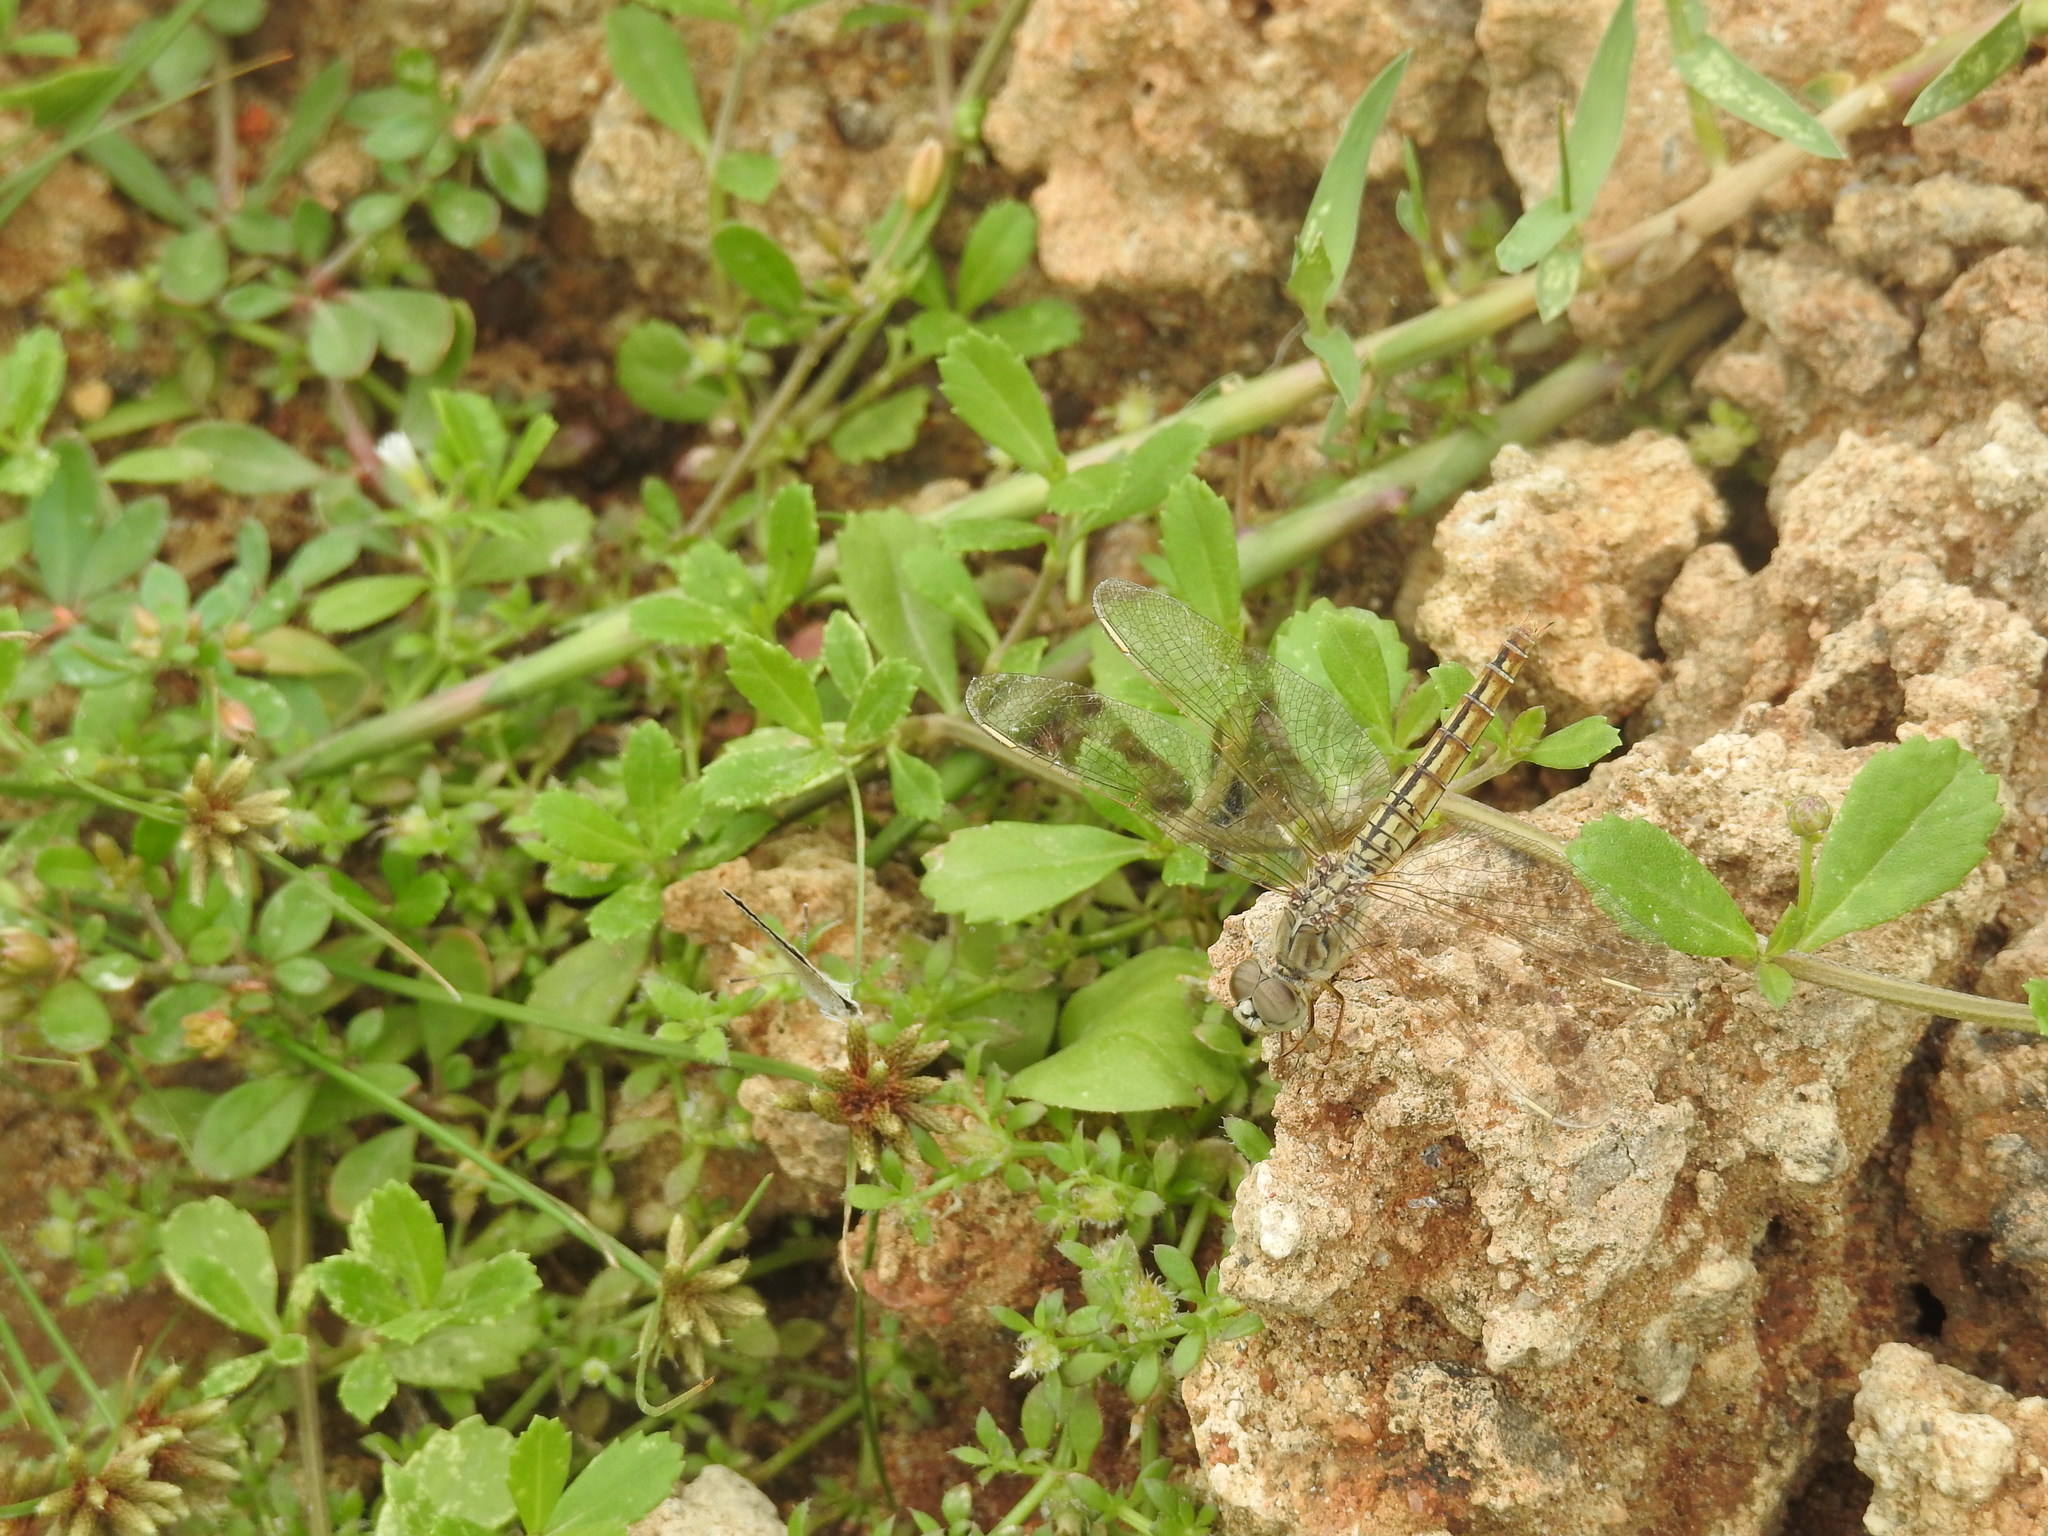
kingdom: Animalia
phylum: Arthropoda
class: Insecta
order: Odonata
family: Libellulidae
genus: Brachythemis
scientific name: Brachythemis contaminata
